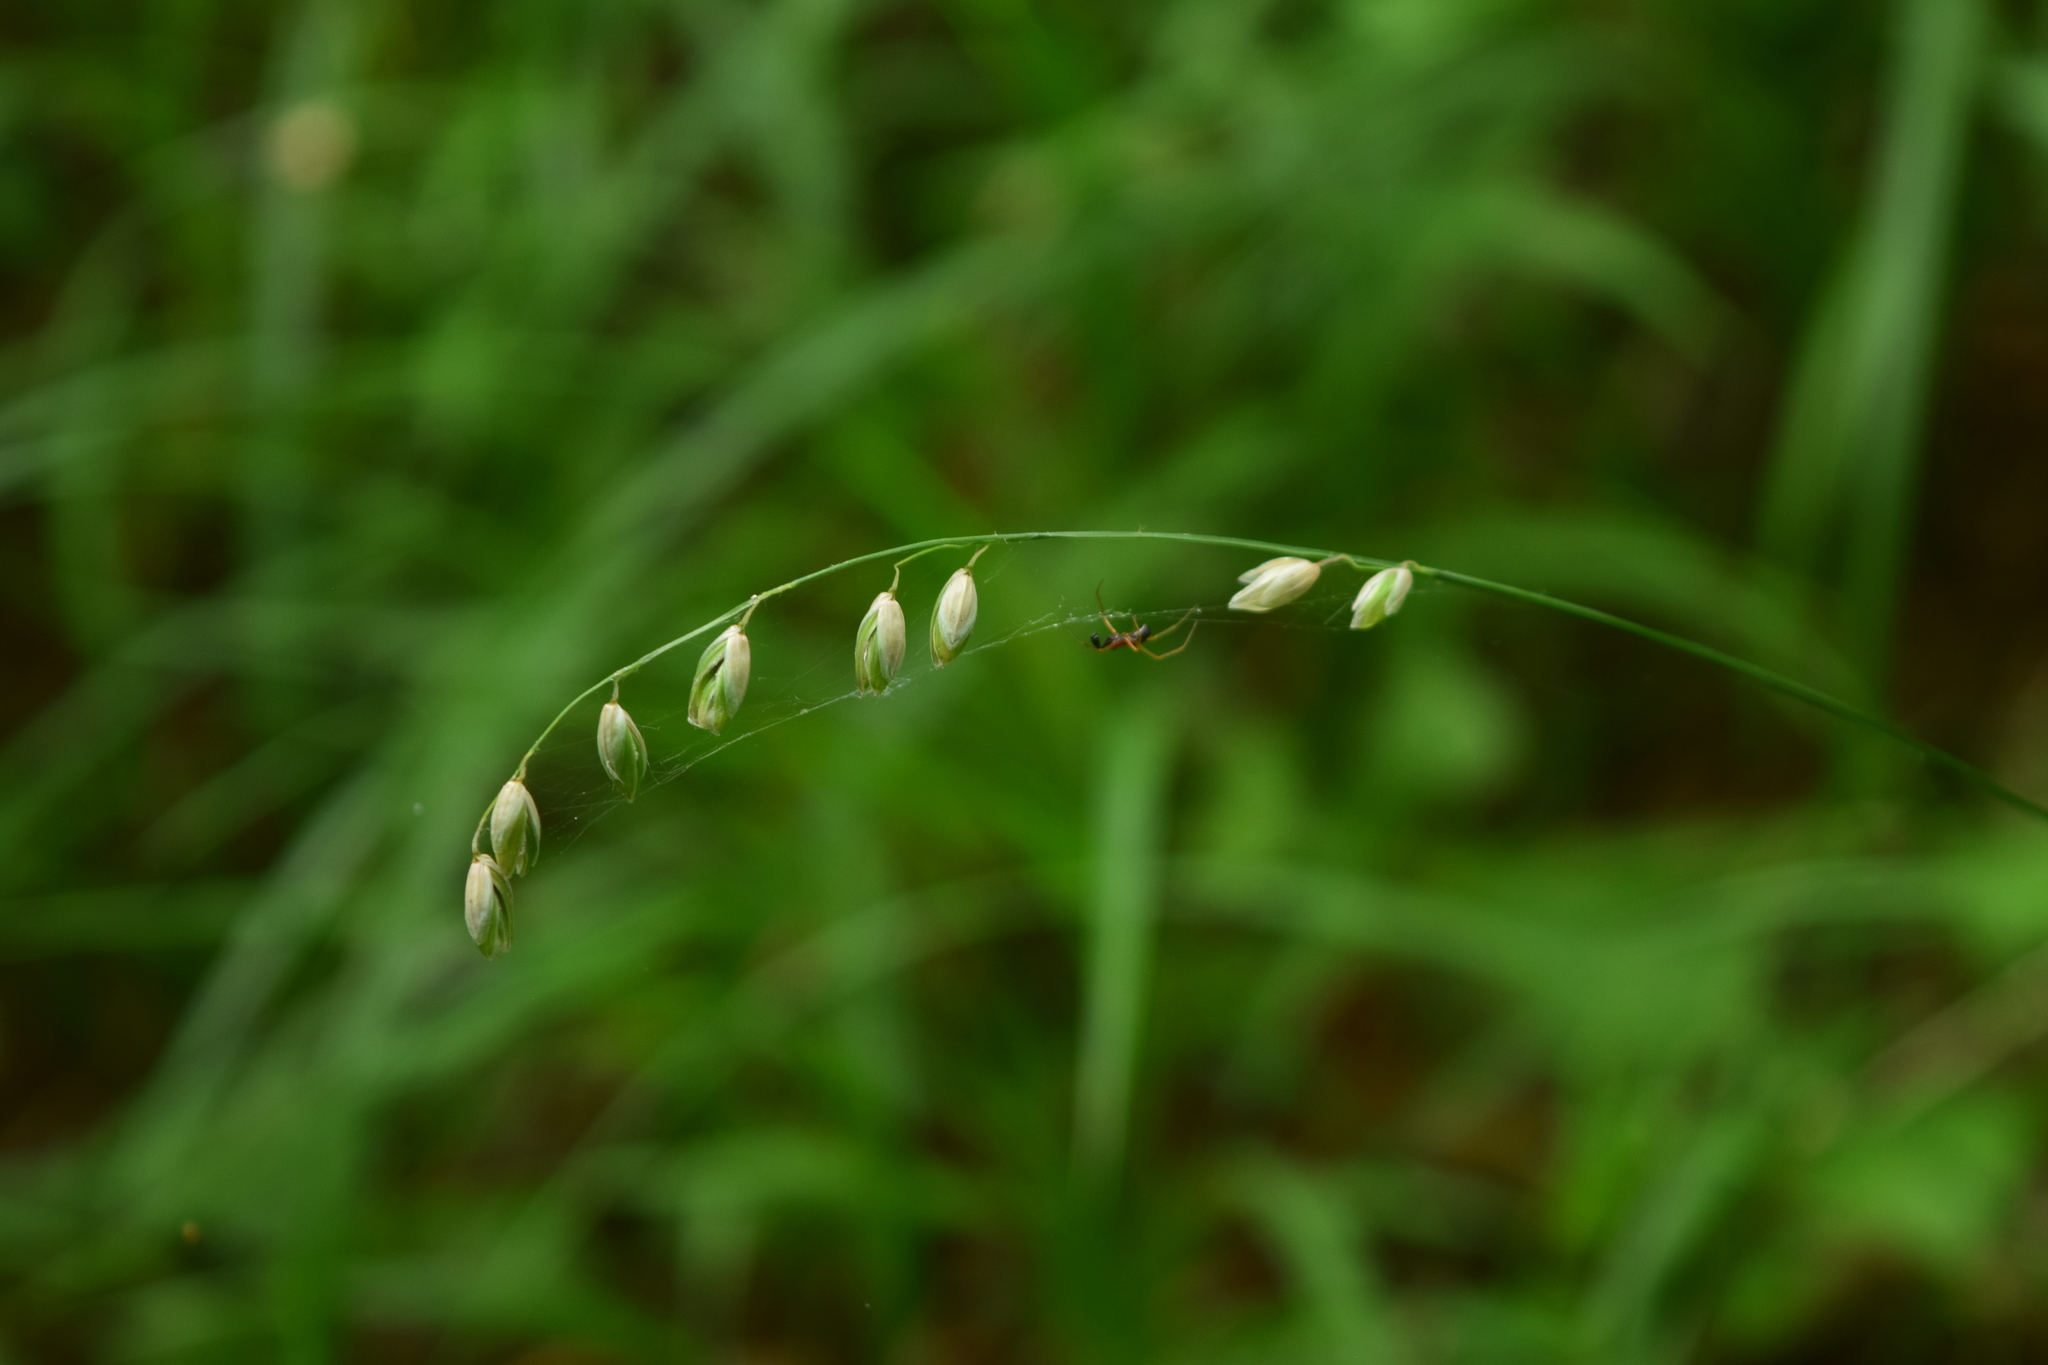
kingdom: Plantae
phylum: Tracheophyta
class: Liliopsida
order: Poales
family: Poaceae
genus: Melica
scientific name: Melica nutans
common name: Mountain melick
